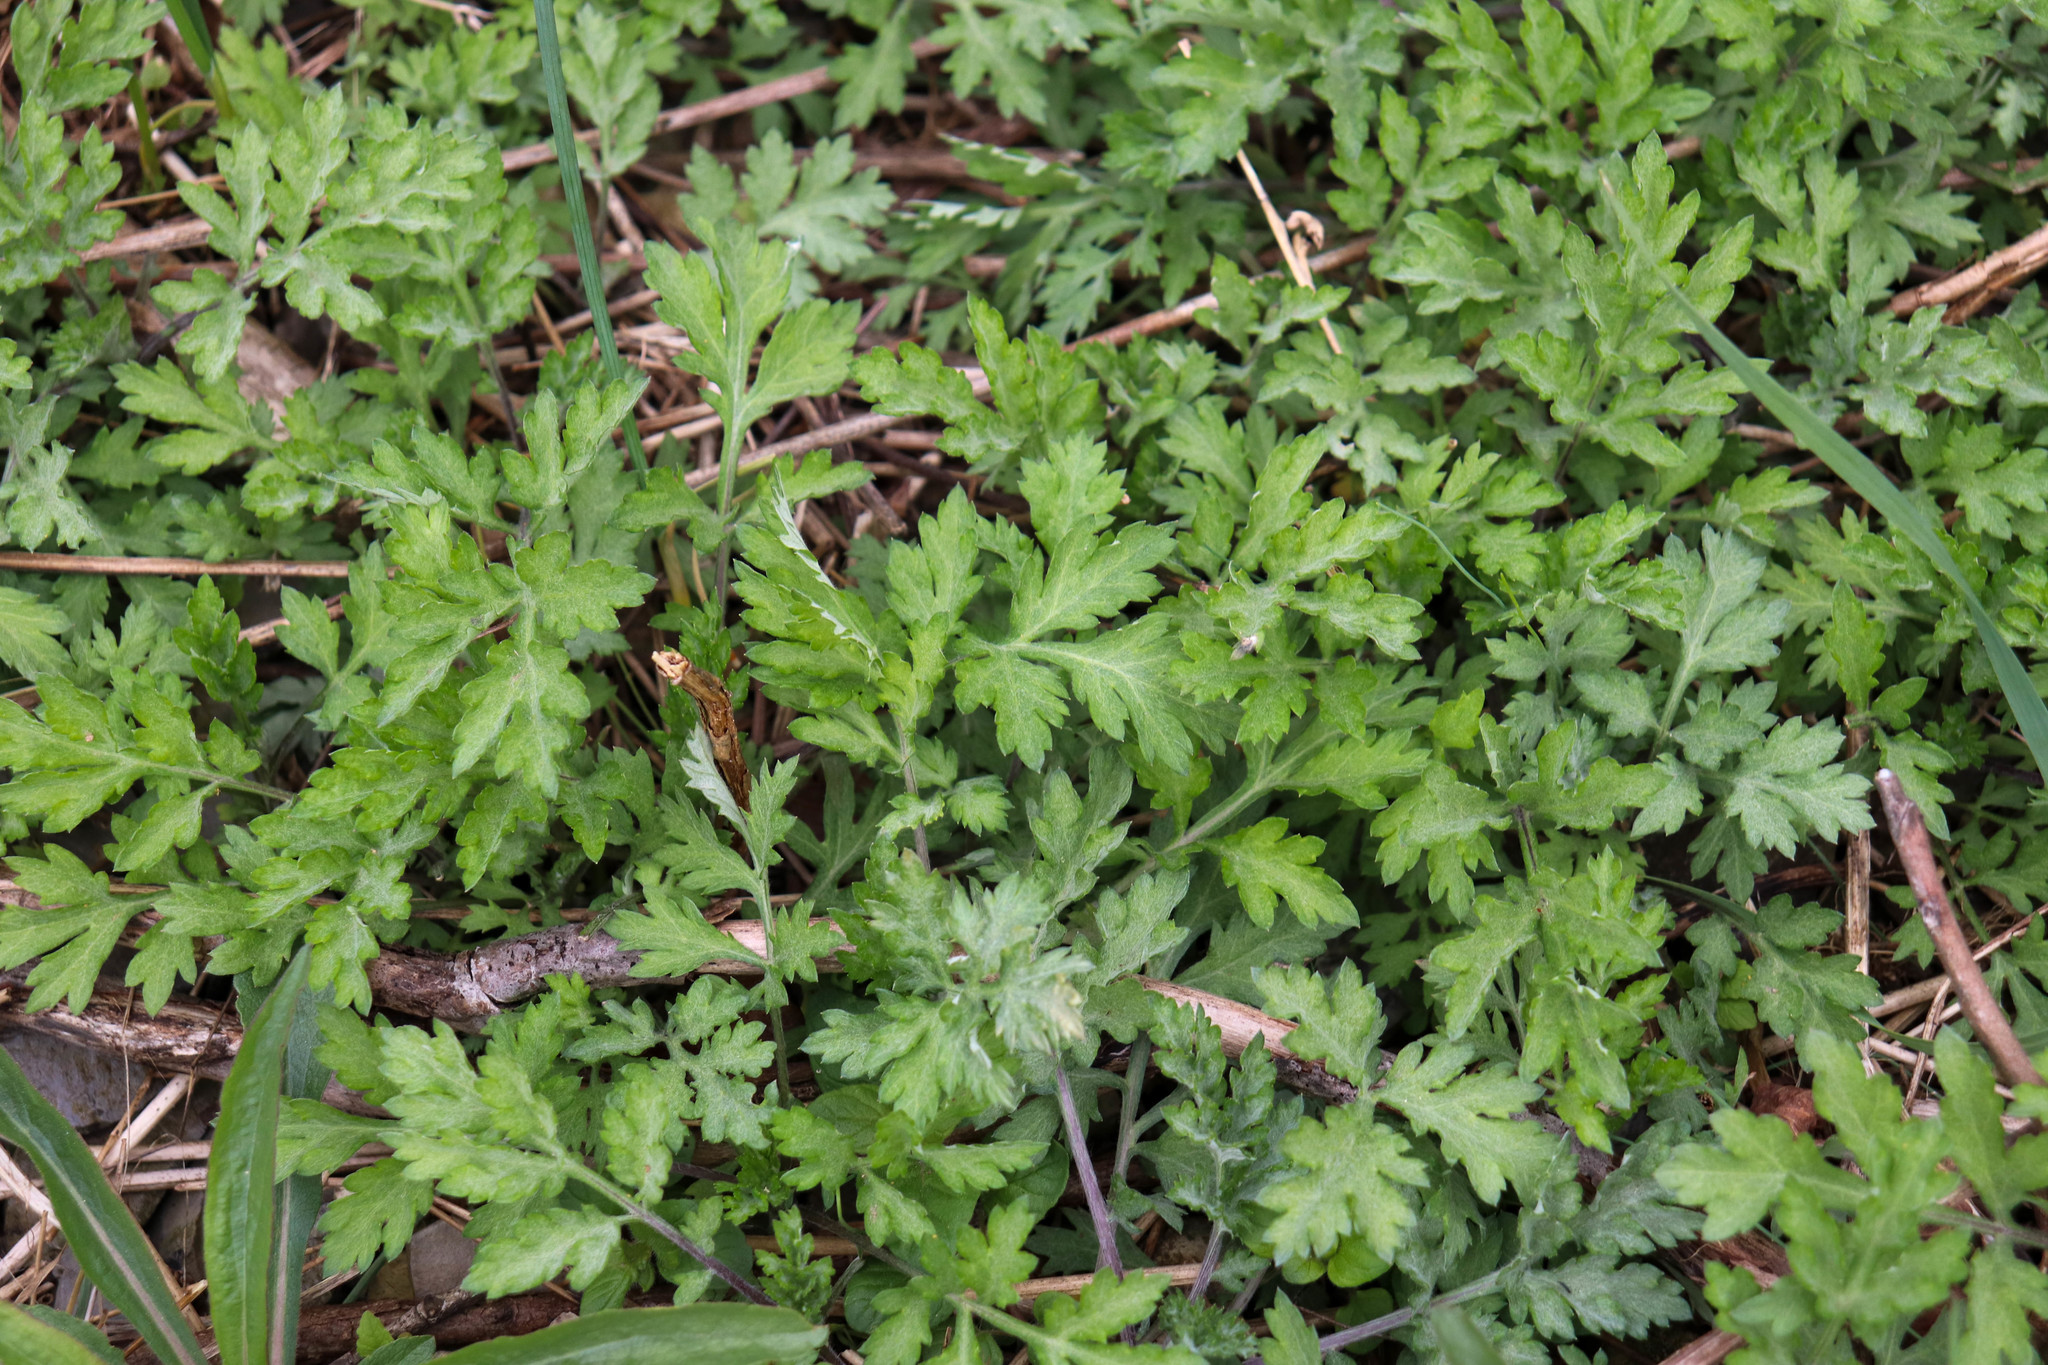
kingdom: Plantae
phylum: Tracheophyta
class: Magnoliopsida
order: Asterales
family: Asteraceae
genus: Artemisia
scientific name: Artemisia vulgaris
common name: Mugwort
